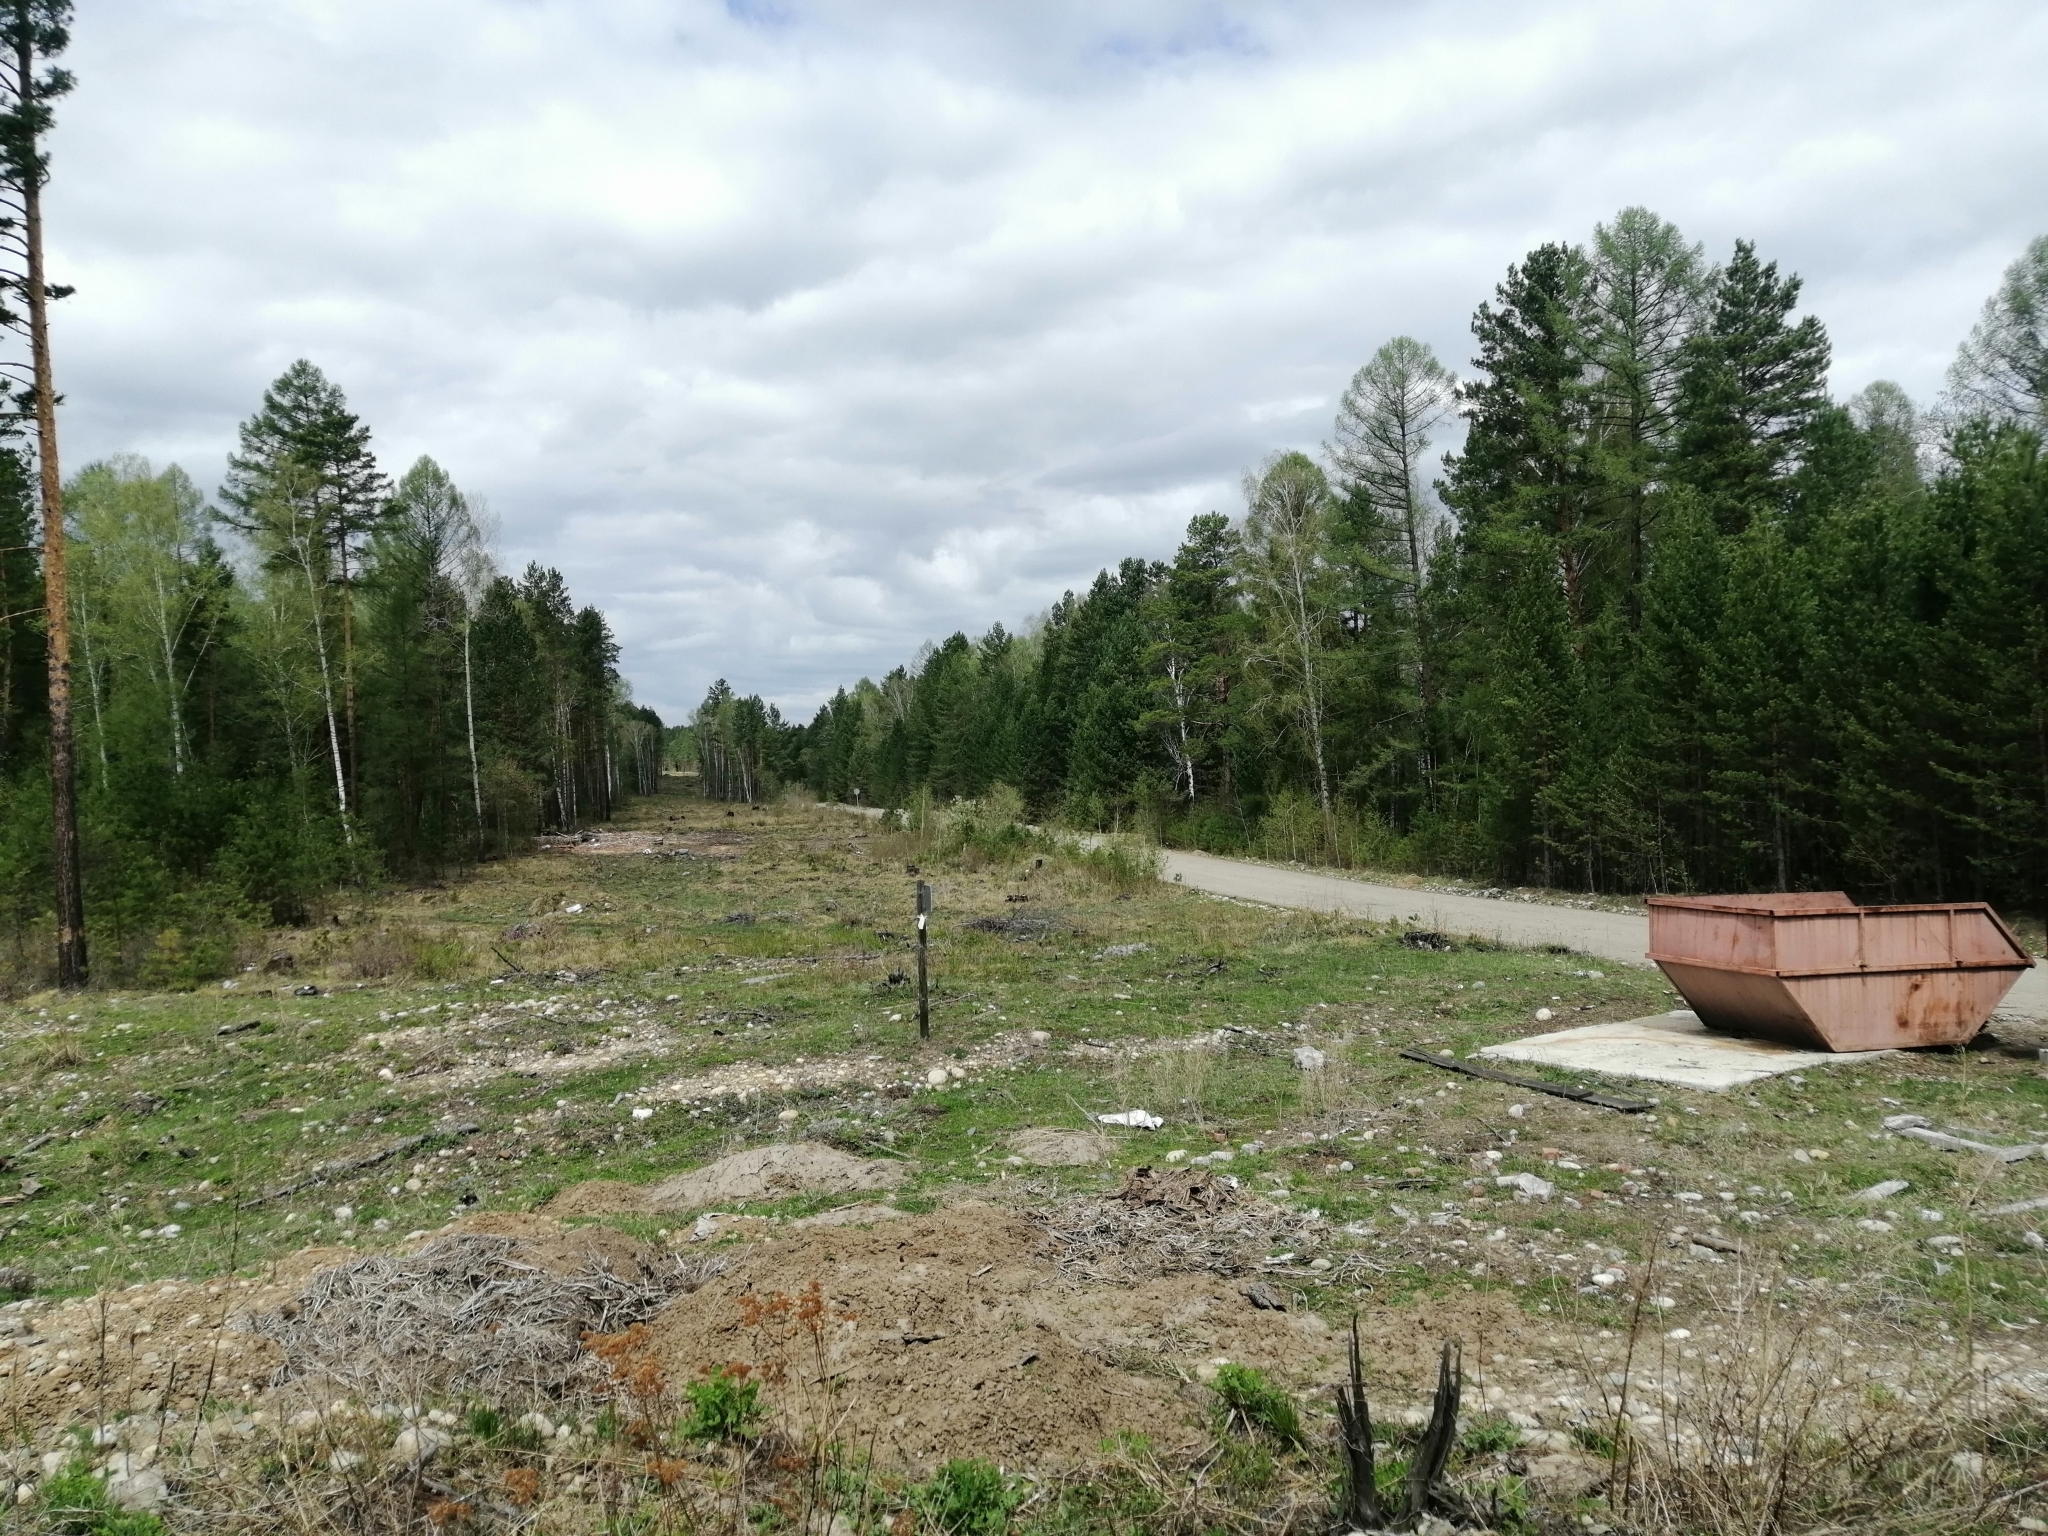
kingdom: Plantae
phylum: Tracheophyta
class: Pinopsida
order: Pinales
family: Pinaceae
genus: Pinus
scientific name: Pinus sylvestris
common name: Scots pine
